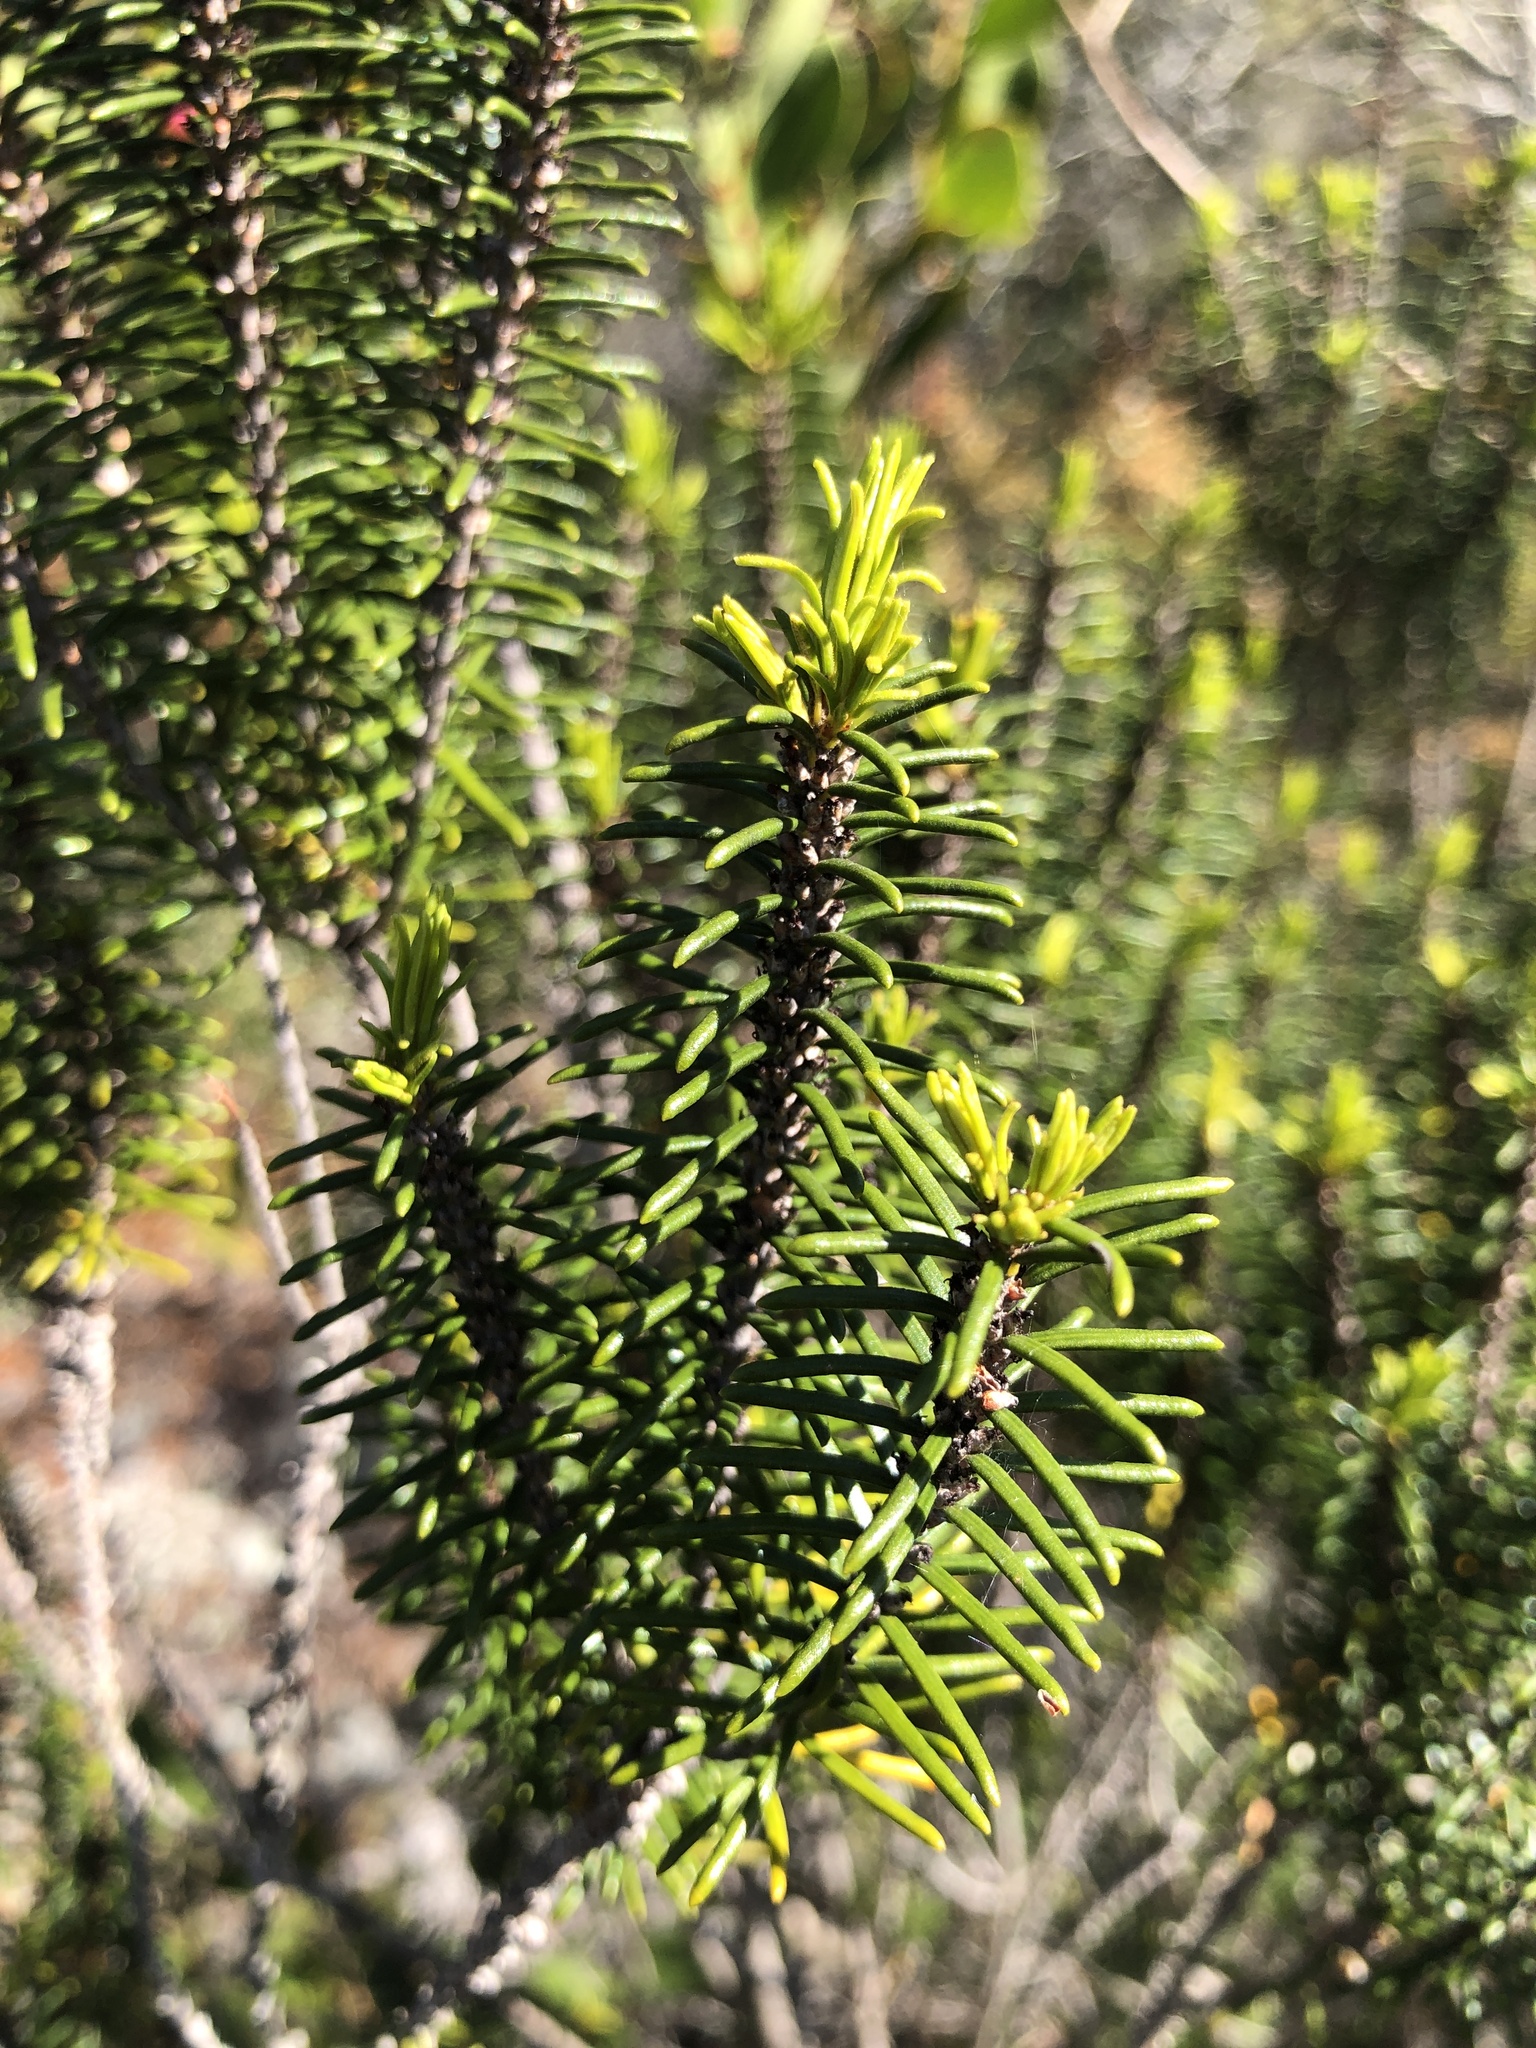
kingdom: Plantae
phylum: Tracheophyta
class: Magnoliopsida
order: Ericales
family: Ericaceae
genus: Ceratiola
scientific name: Ceratiola ericoides
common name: Sandhill-rosemary
